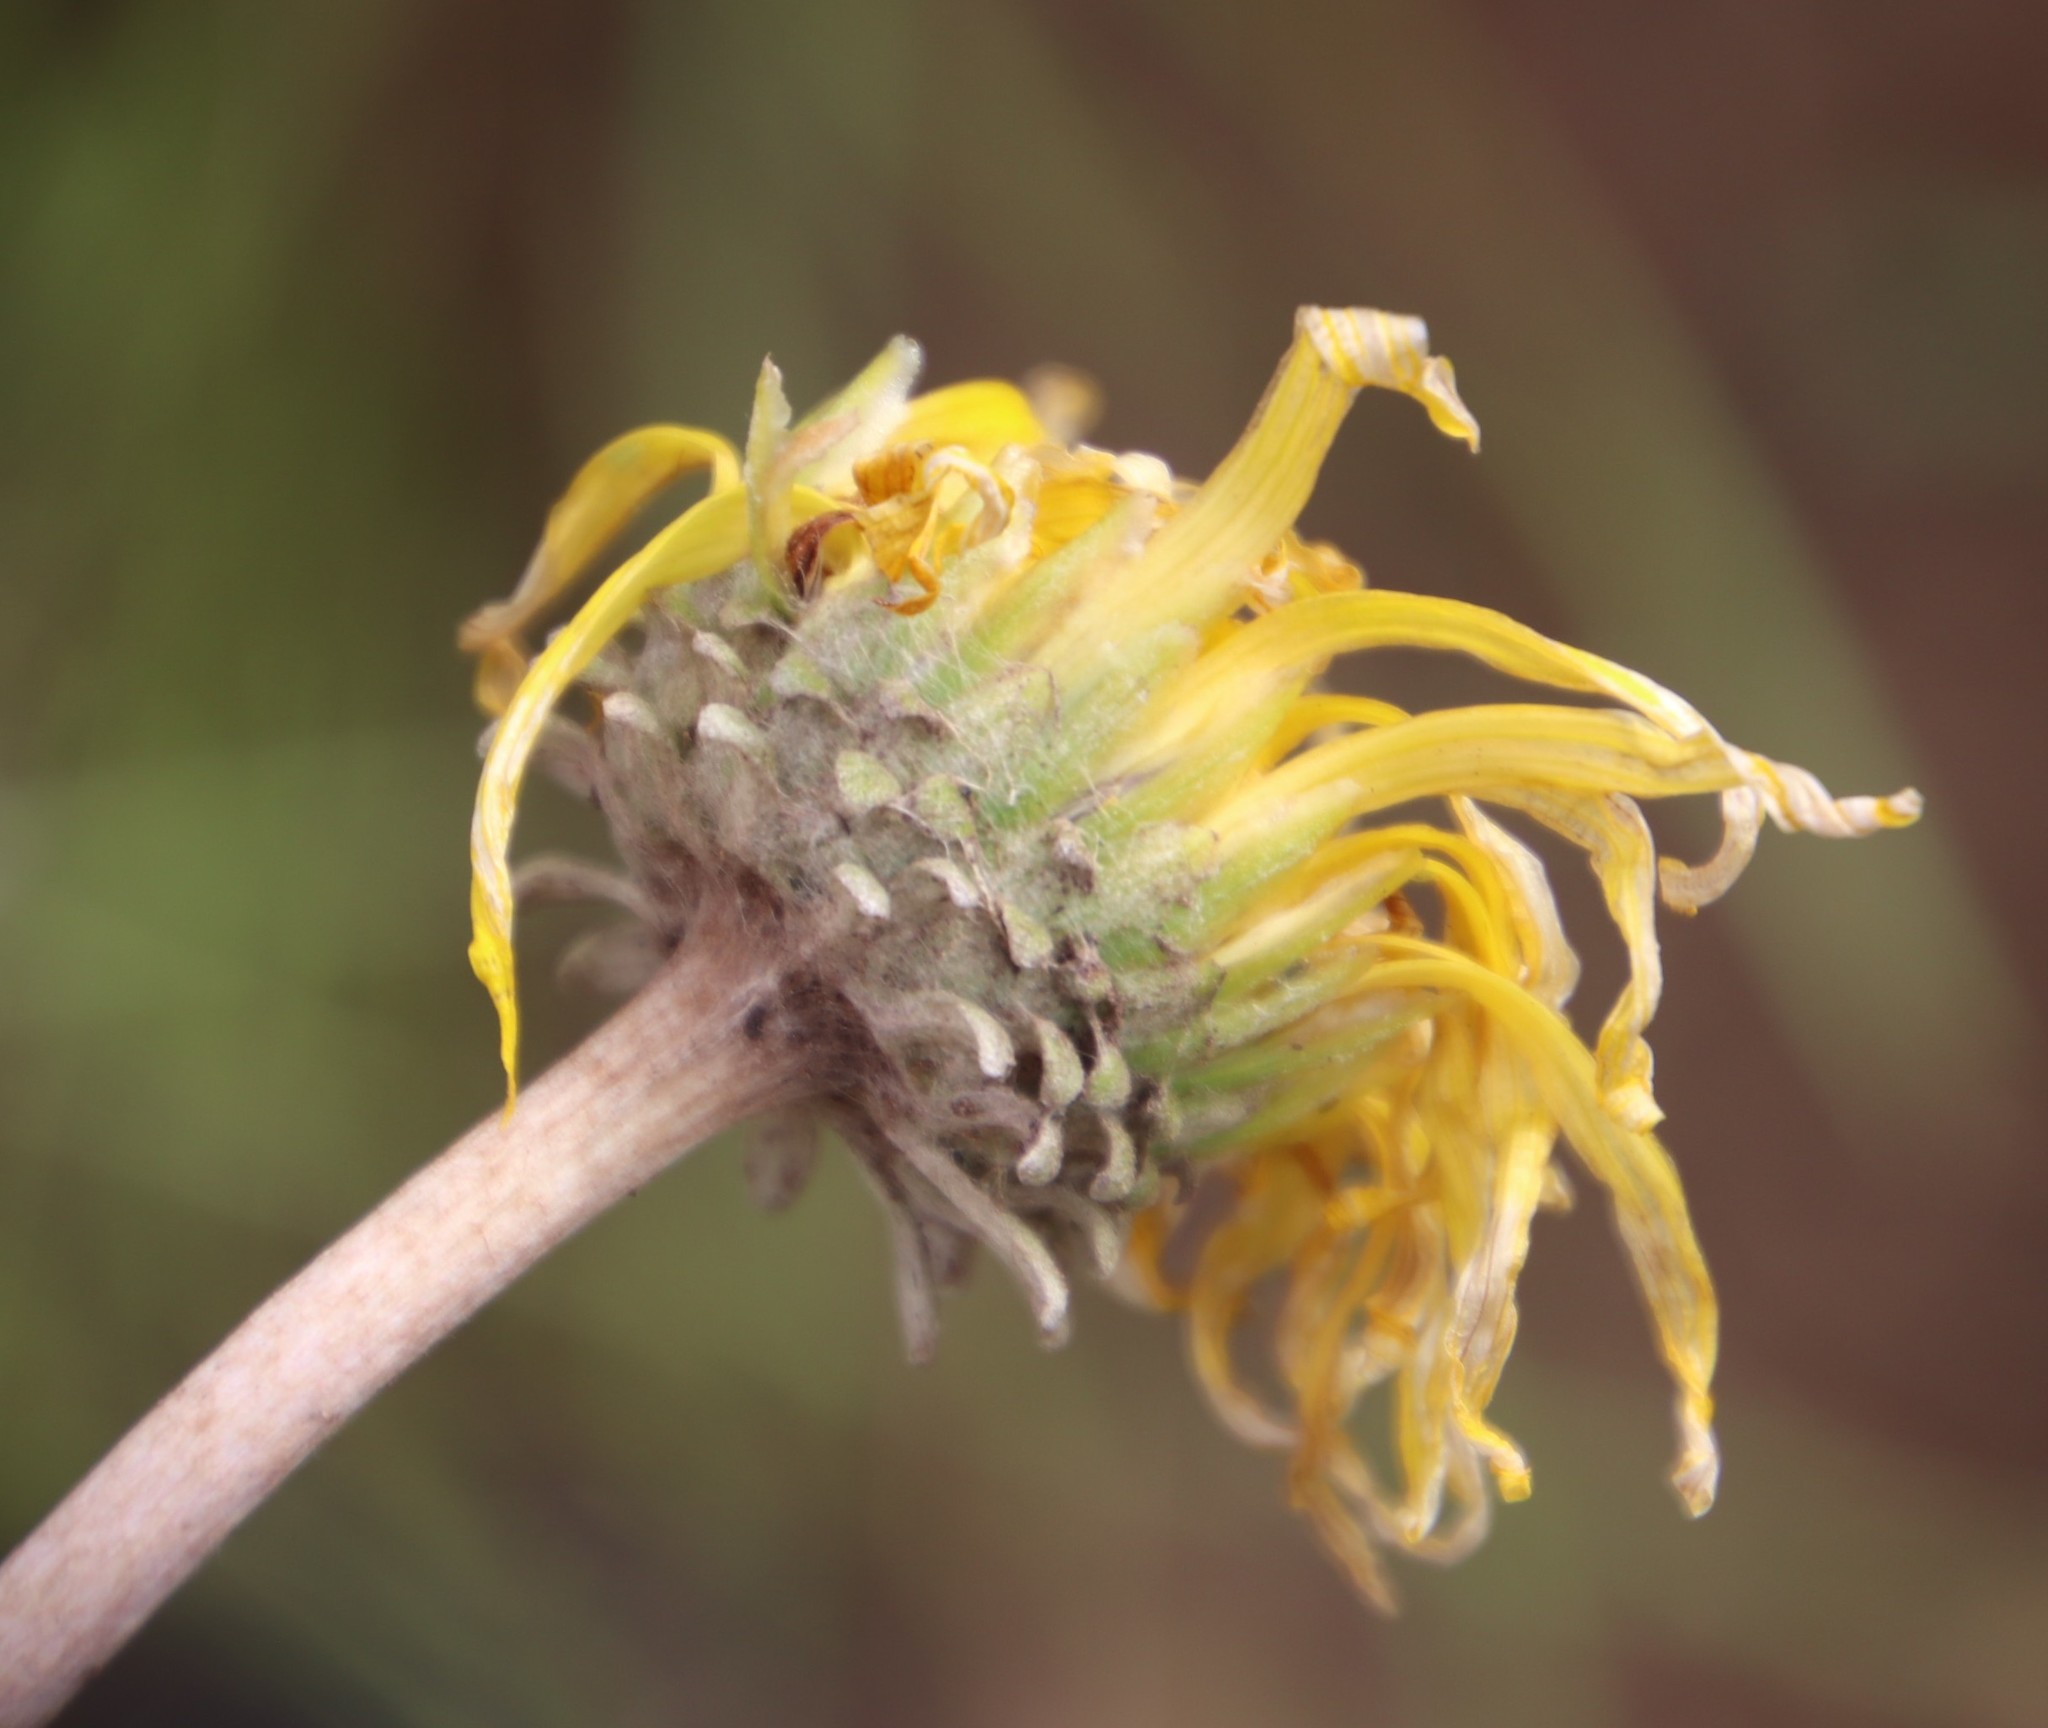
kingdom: Plantae
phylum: Tracheophyta
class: Magnoliopsida
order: Asterales
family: Asteraceae
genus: Haplocarpha
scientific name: Haplocarpha scaposa
